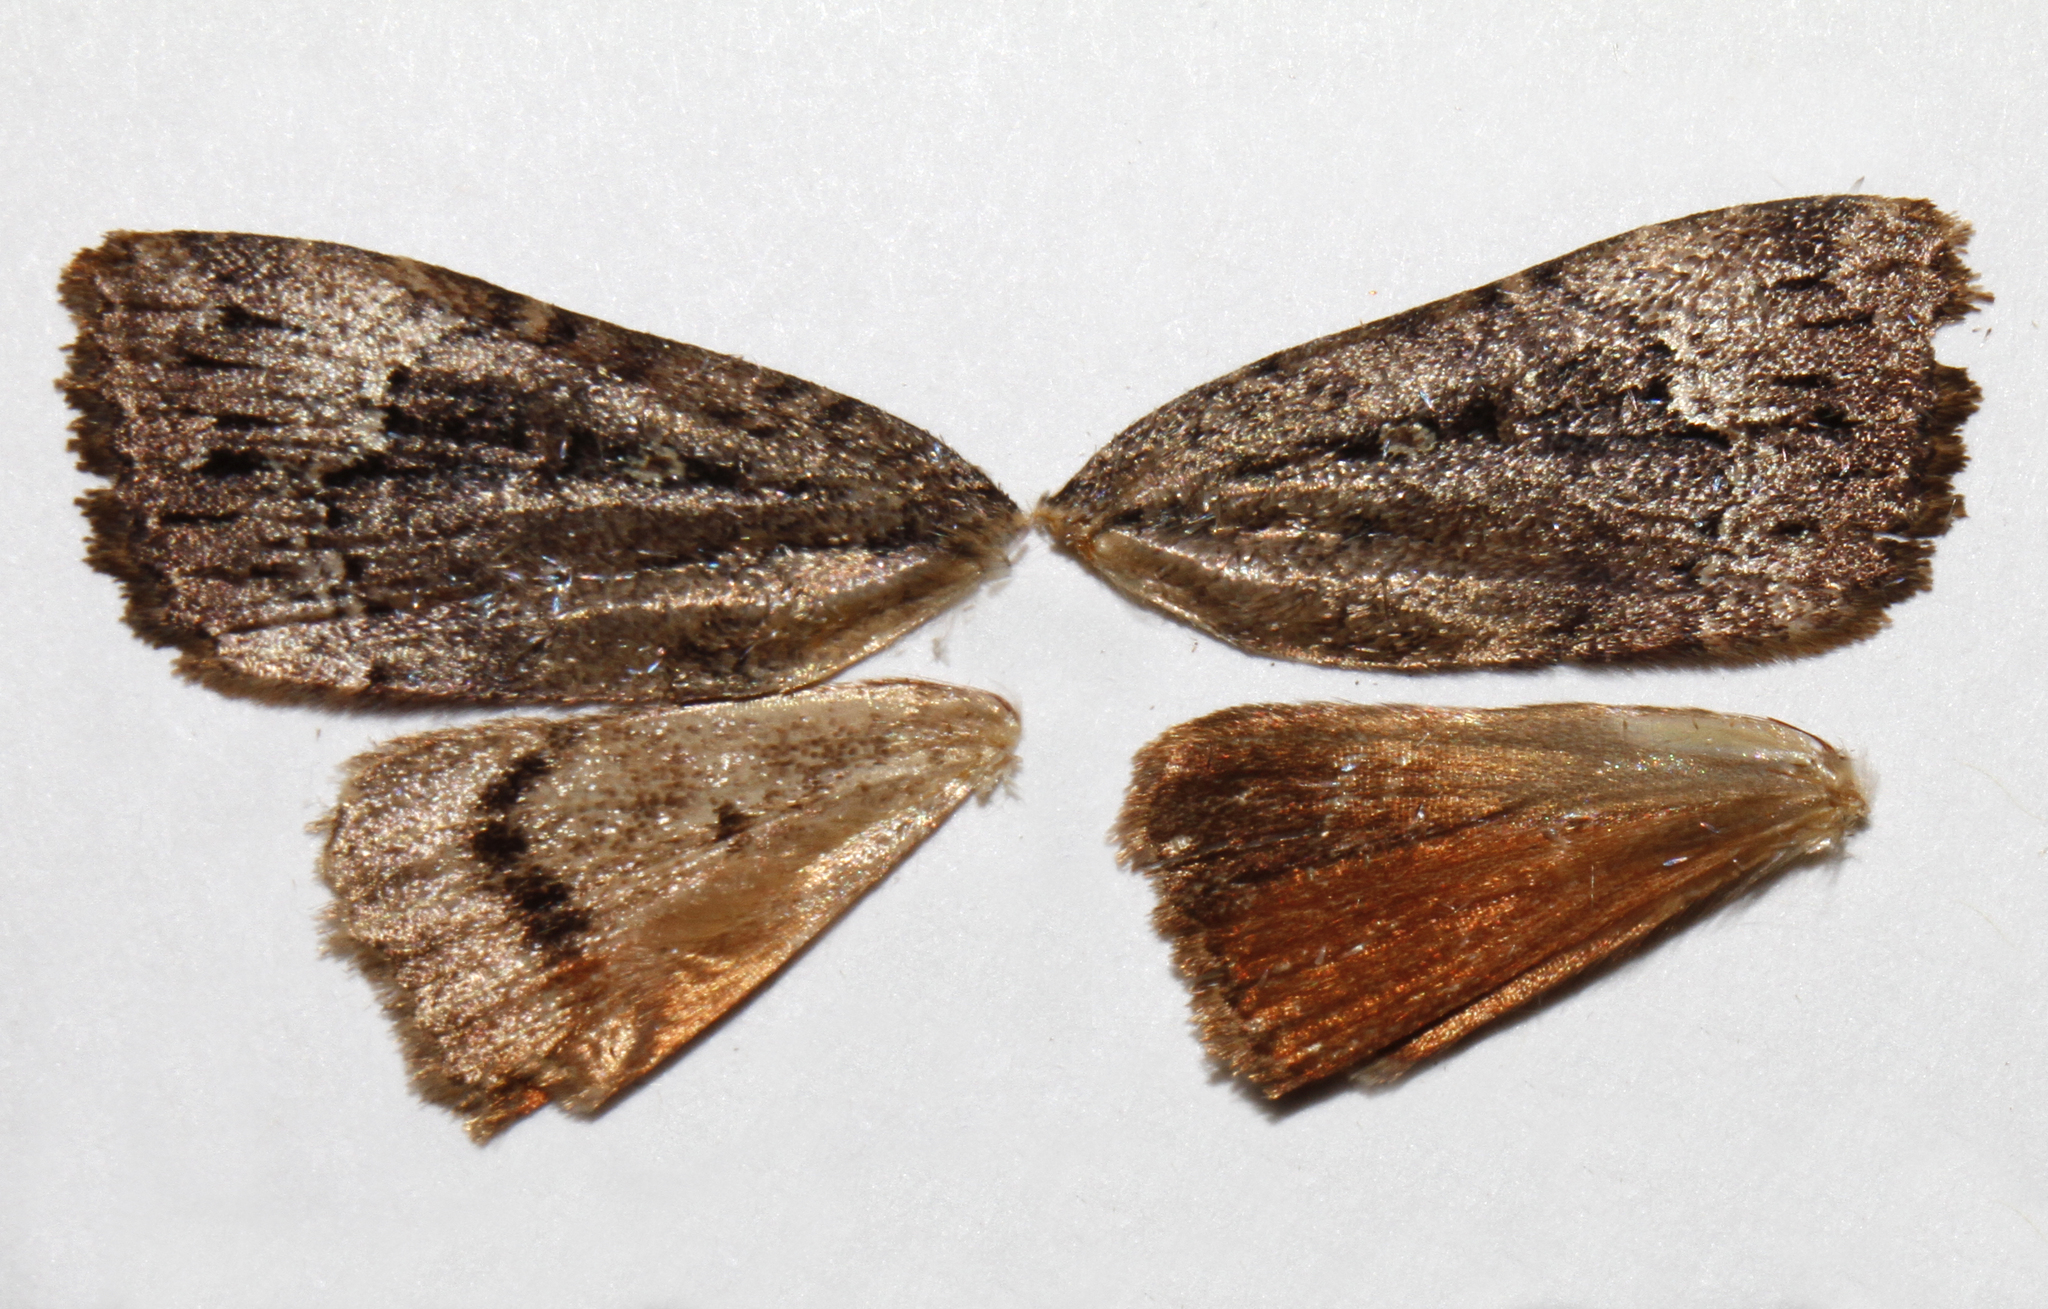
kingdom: Animalia
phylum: Arthropoda
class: Insecta
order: Lepidoptera
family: Noctuidae
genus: Amphipyra
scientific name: Amphipyra pyramidoides
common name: American copper underwing
